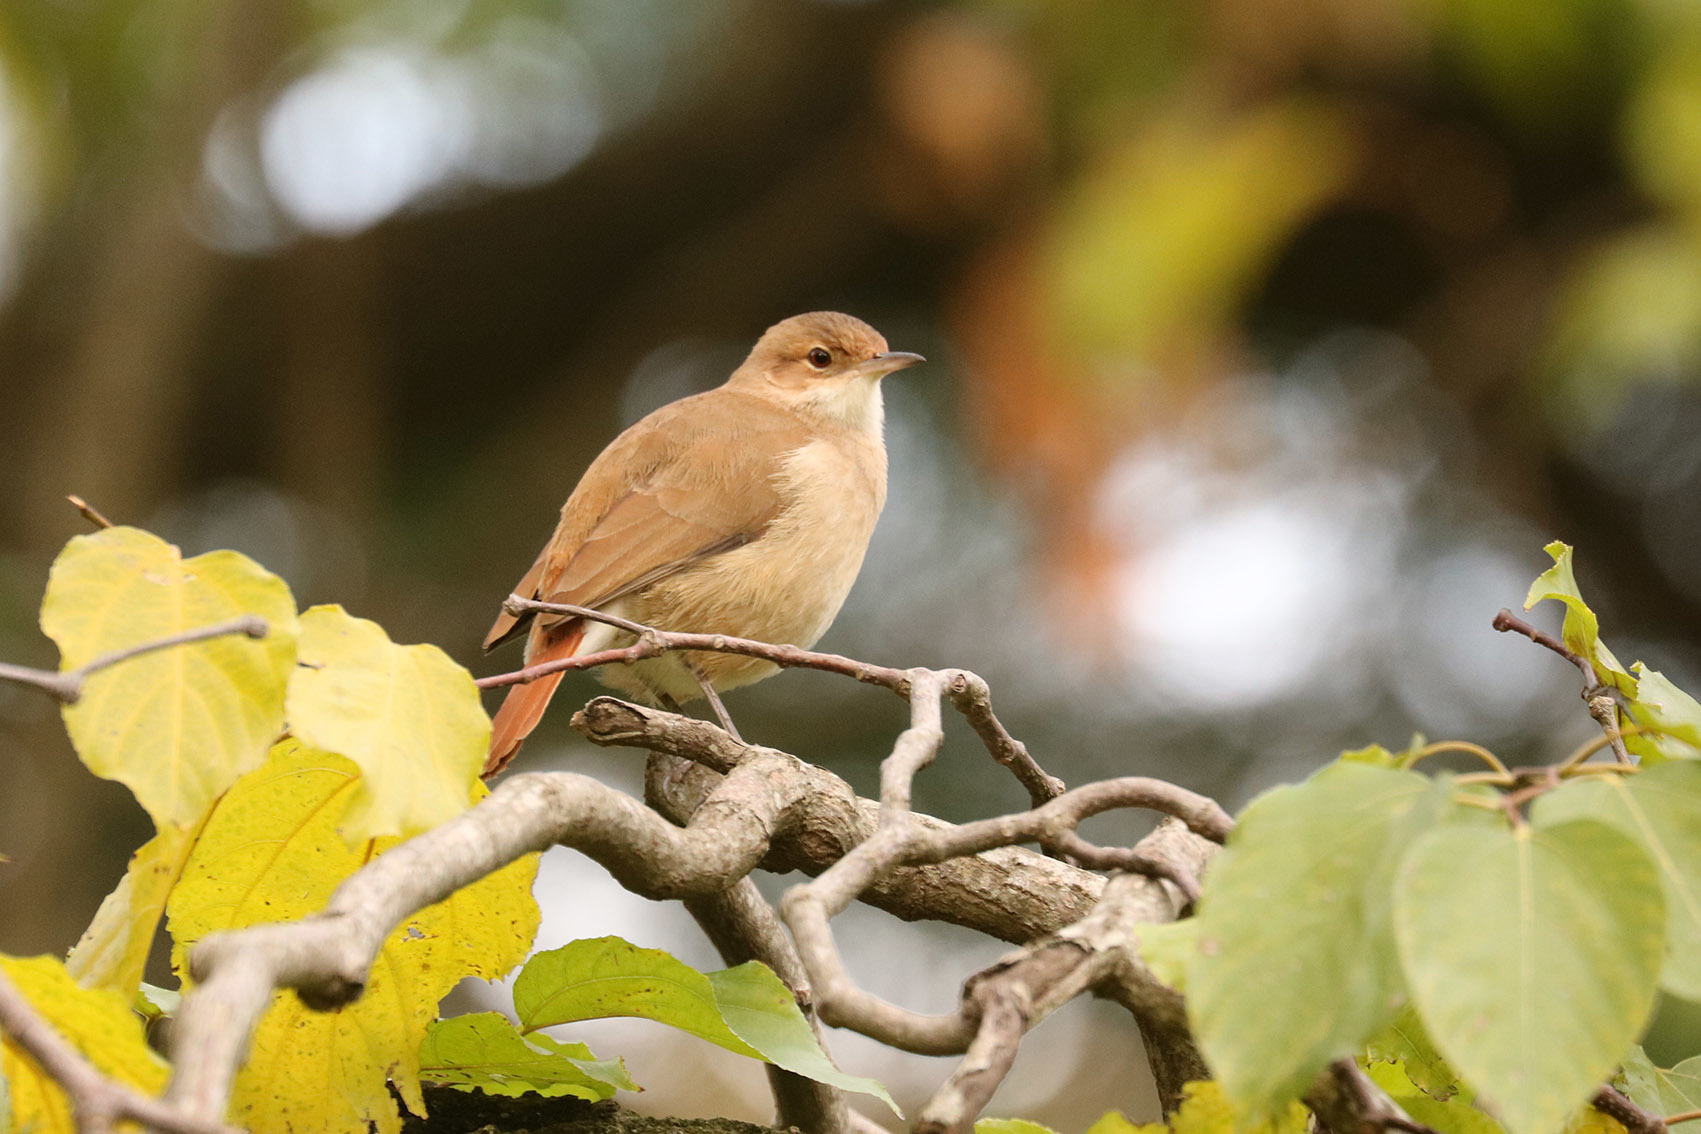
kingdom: Animalia
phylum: Chordata
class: Aves
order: Passeriformes
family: Furnariidae
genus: Furnarius
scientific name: Furnarius rufus
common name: Rufous hornero
